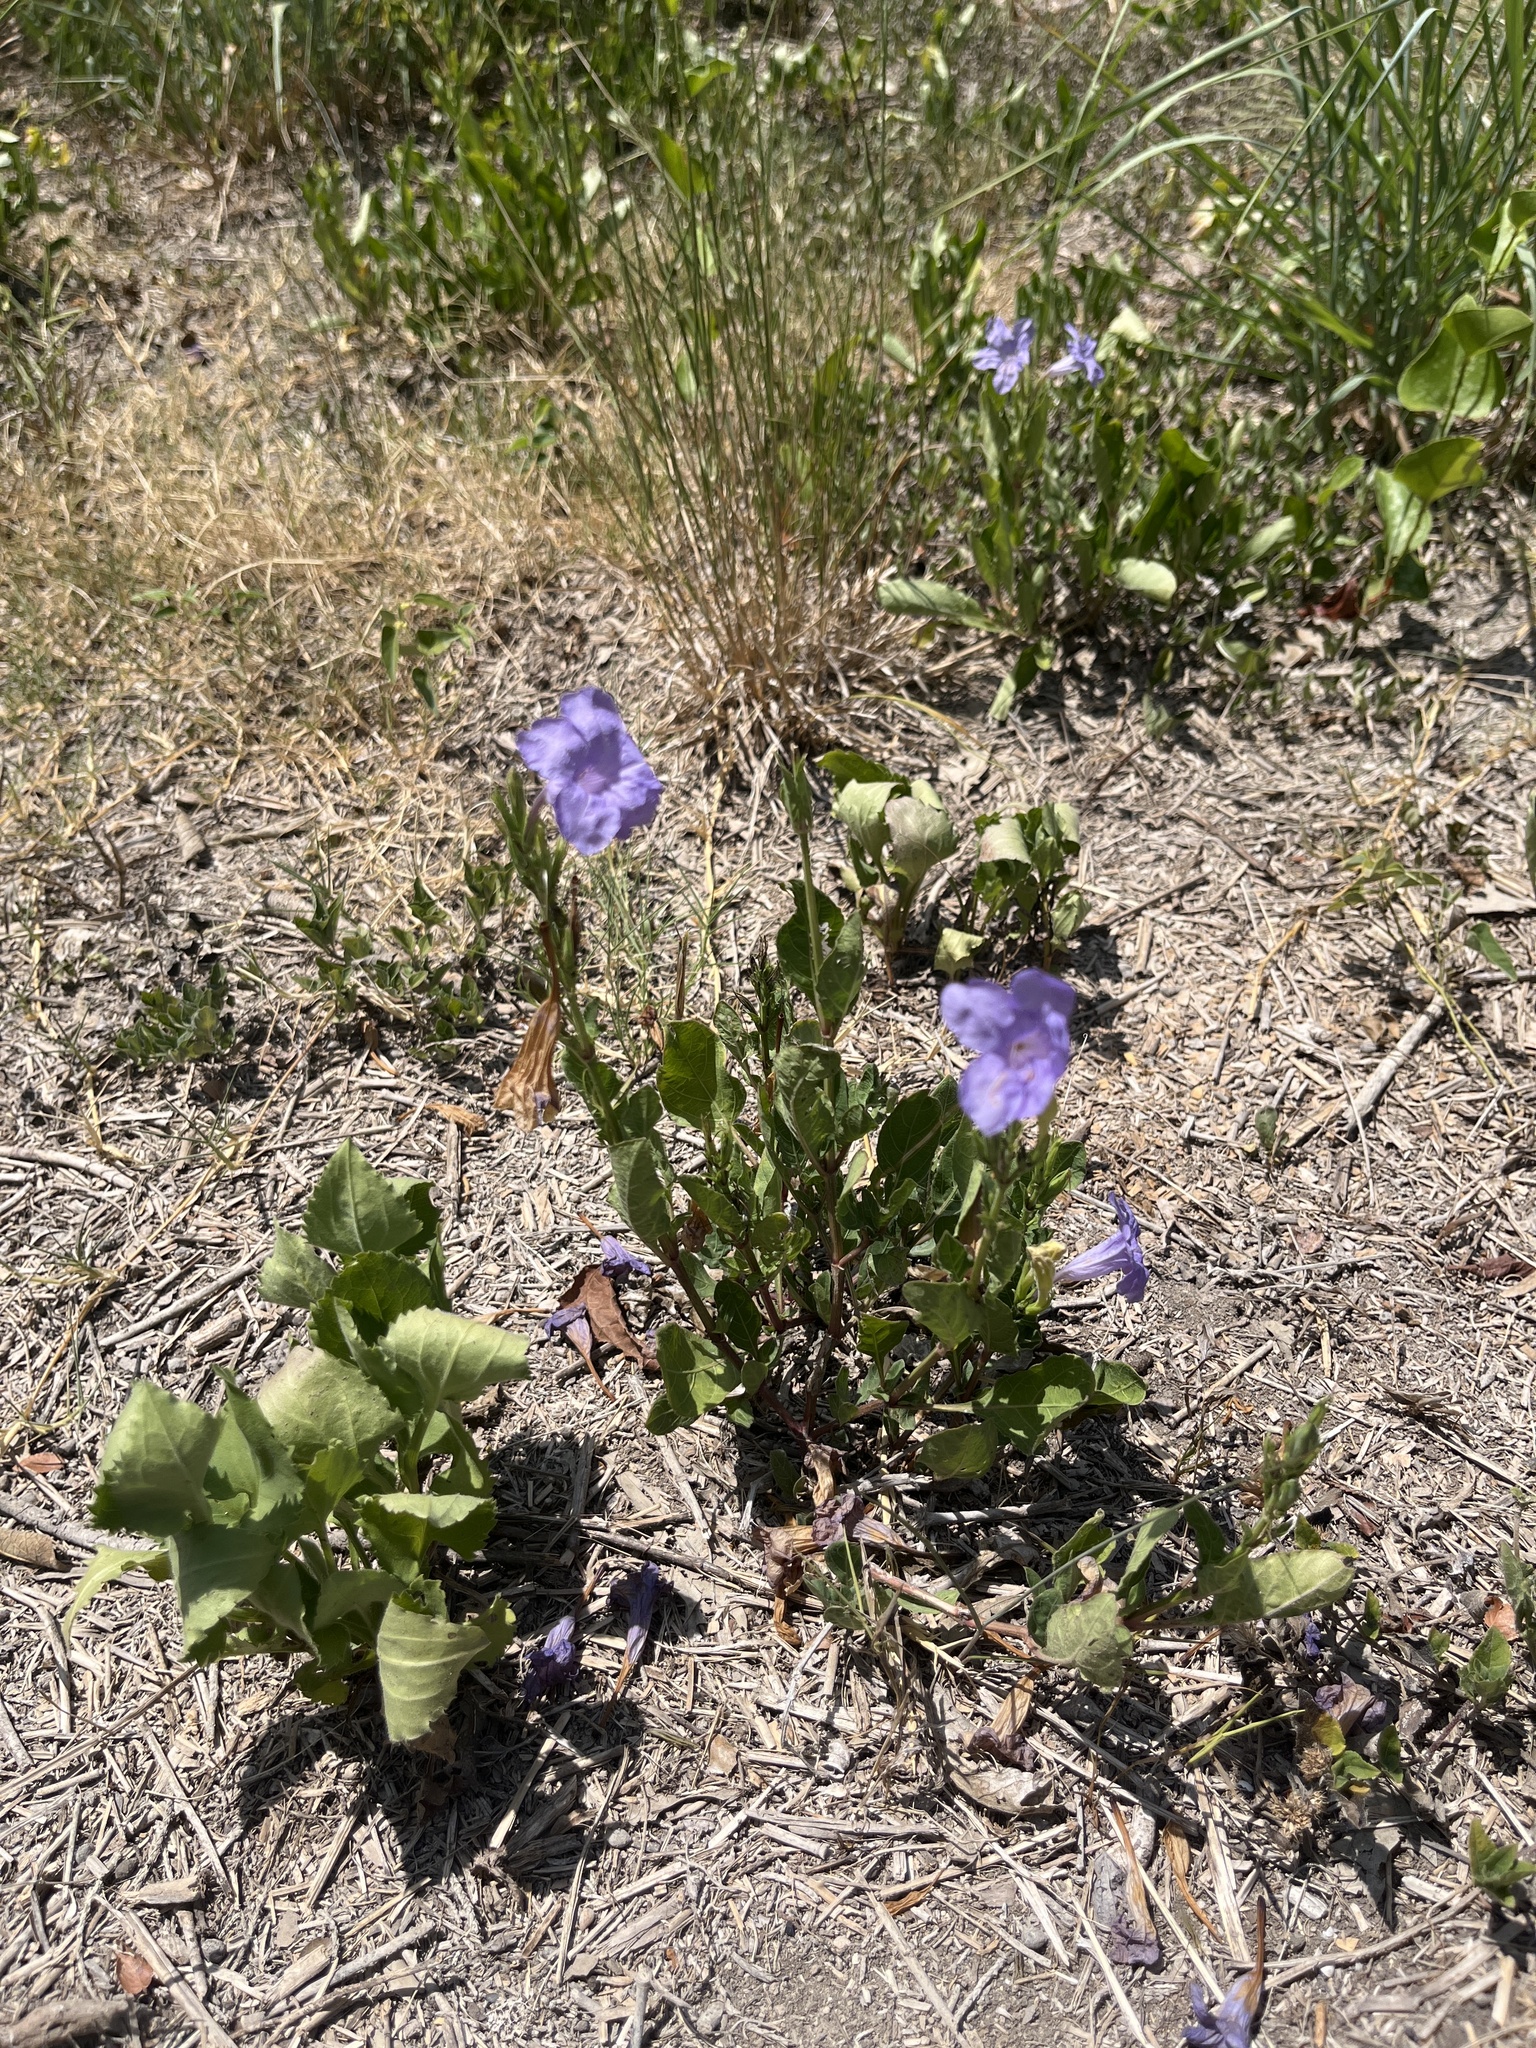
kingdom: Plantae
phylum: Tracheophyta
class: Magnoliopsida
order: Lamiales
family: Acanthaceae
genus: Ruellia
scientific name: Ruellia ciliatiflora
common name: Hairyflower wild petunia
